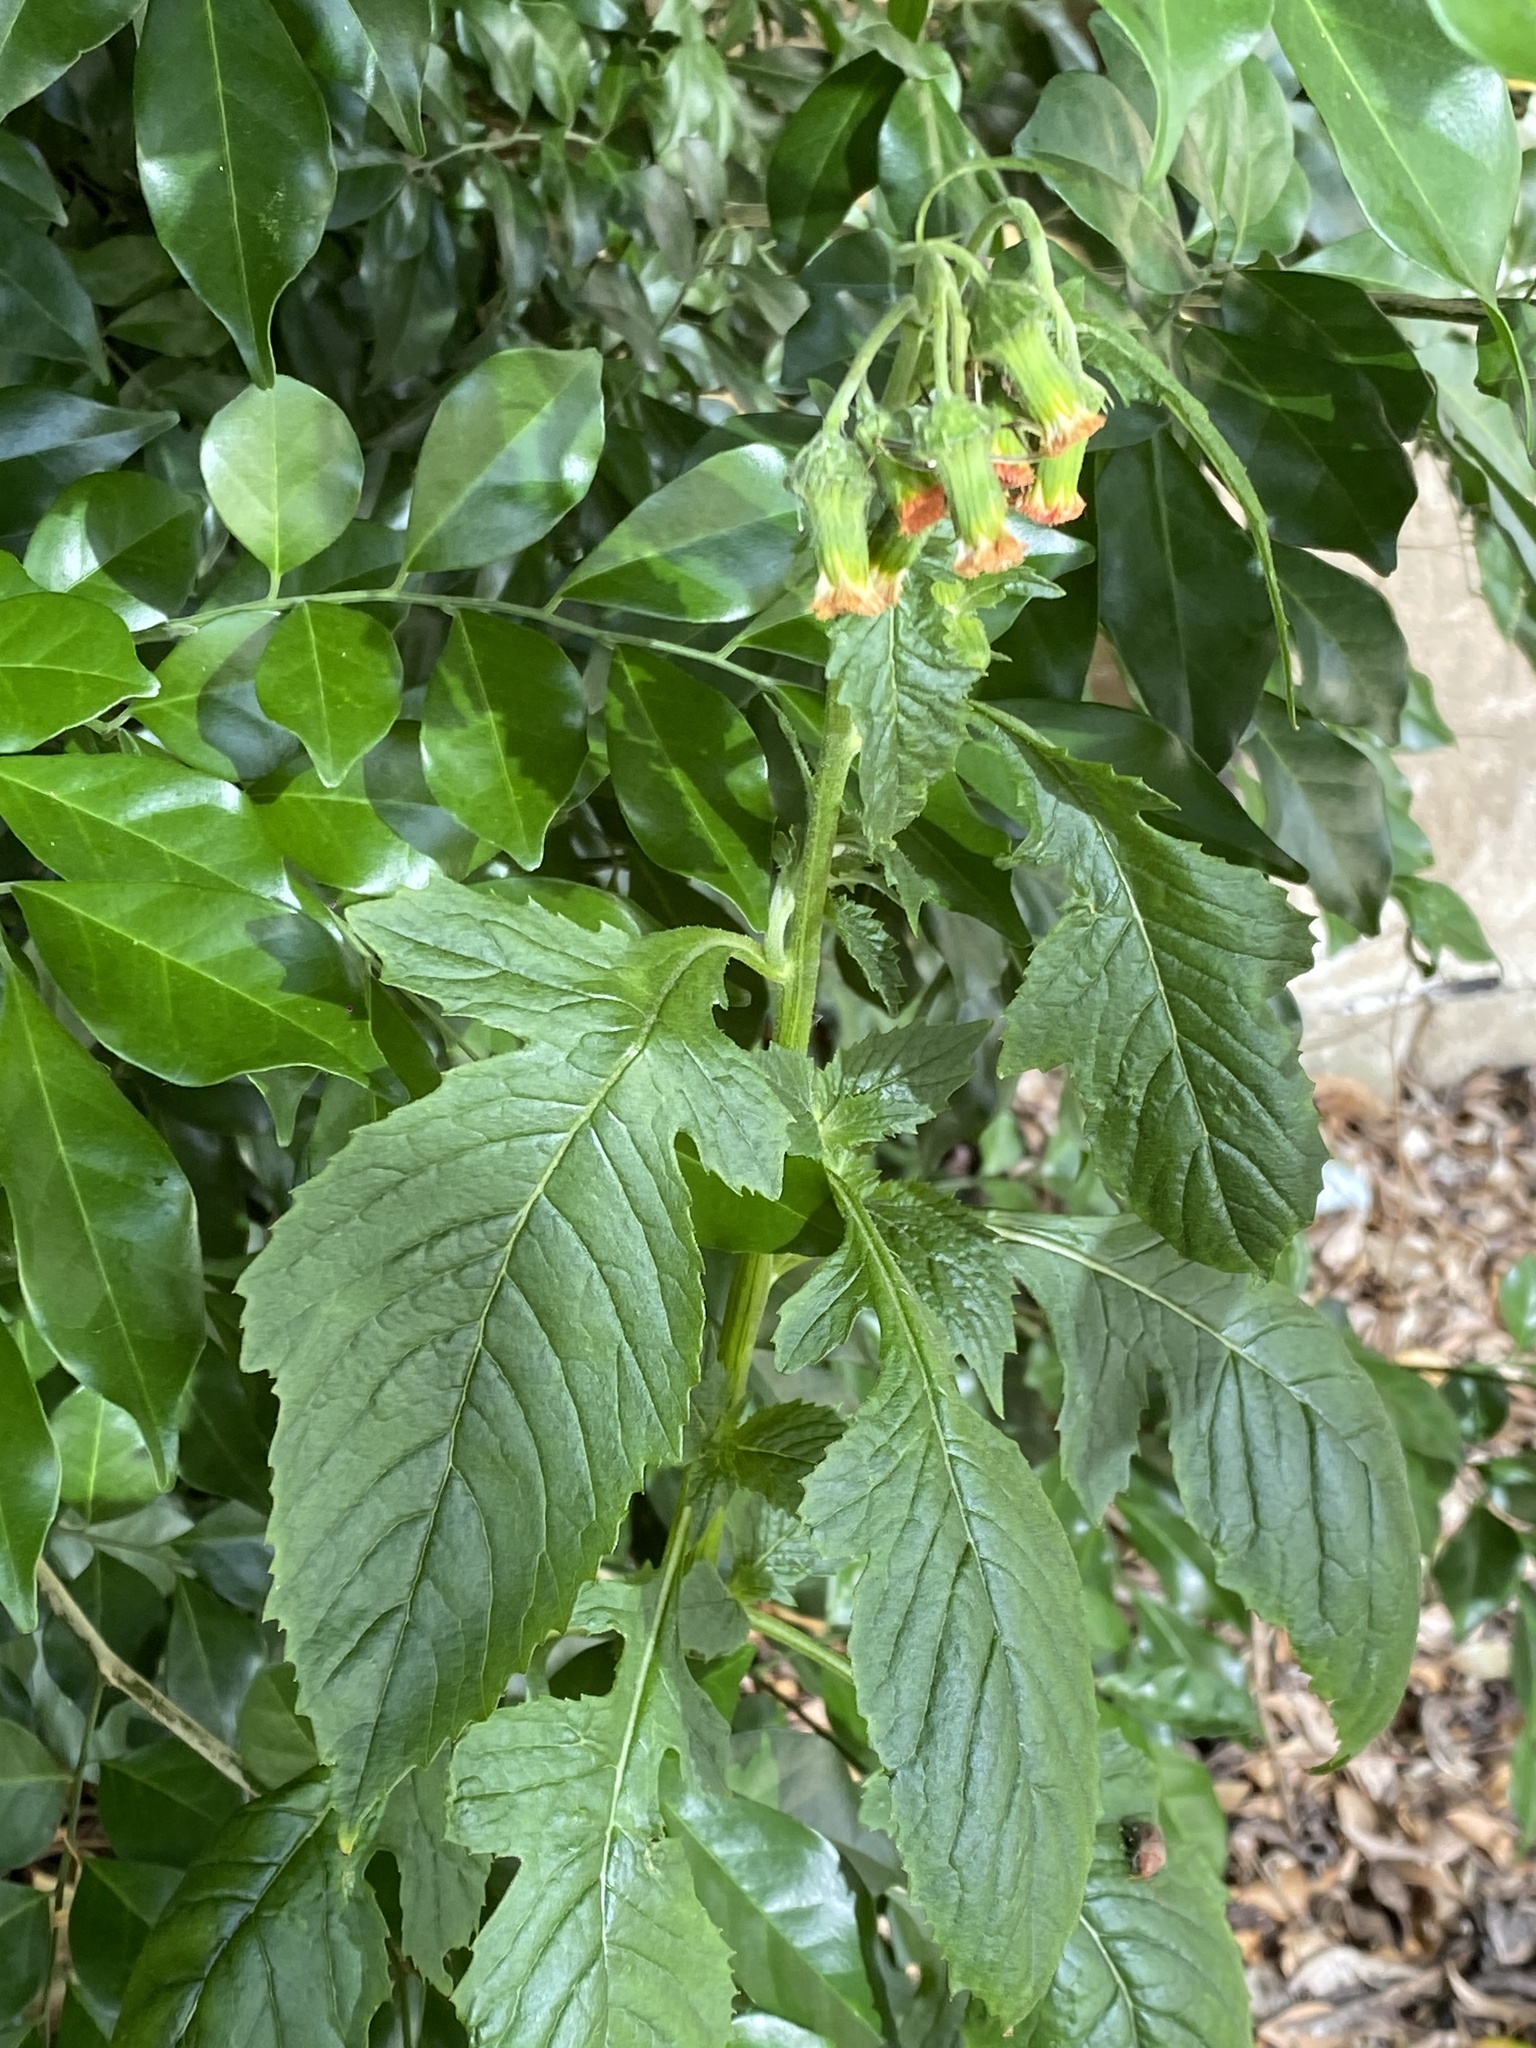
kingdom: Plantae
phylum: Tracheophyta
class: Magnoliopsida
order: Asterales
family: Asteraceae
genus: Crassocephalum
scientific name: Crassocephalum crepidioides
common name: Redflower ragleaf
